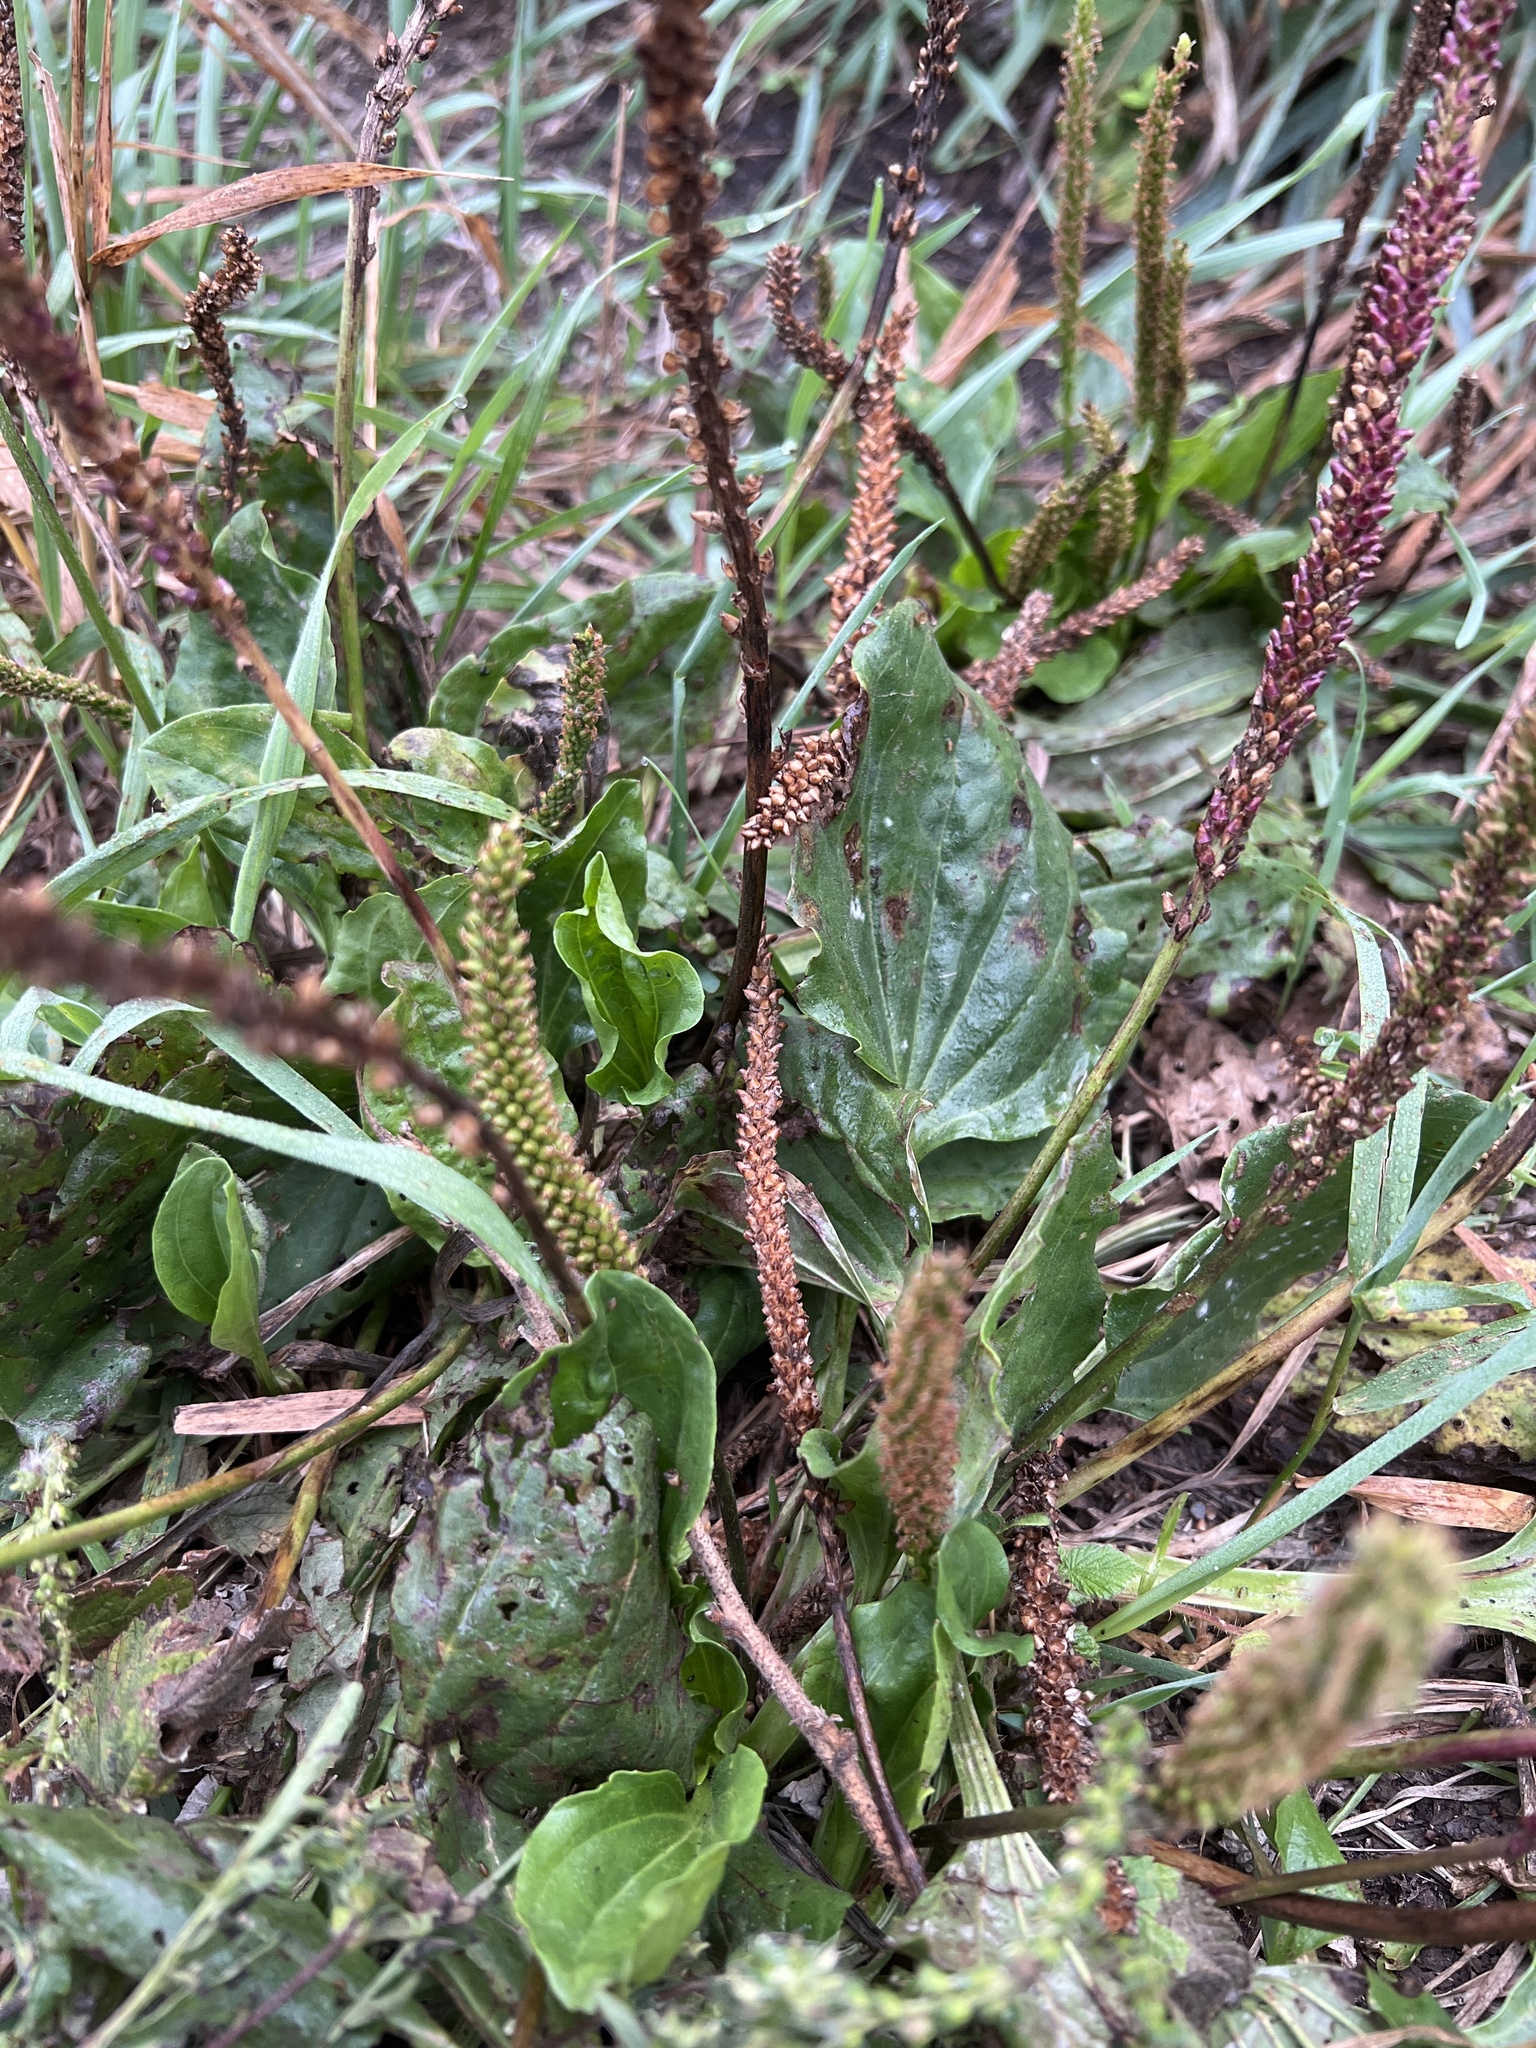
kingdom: Plantae
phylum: Tracheophyta
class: Magnoliopsida
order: Lamiales
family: Plantaginaceae
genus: Plantago
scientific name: Plantago major
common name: Common plantain
